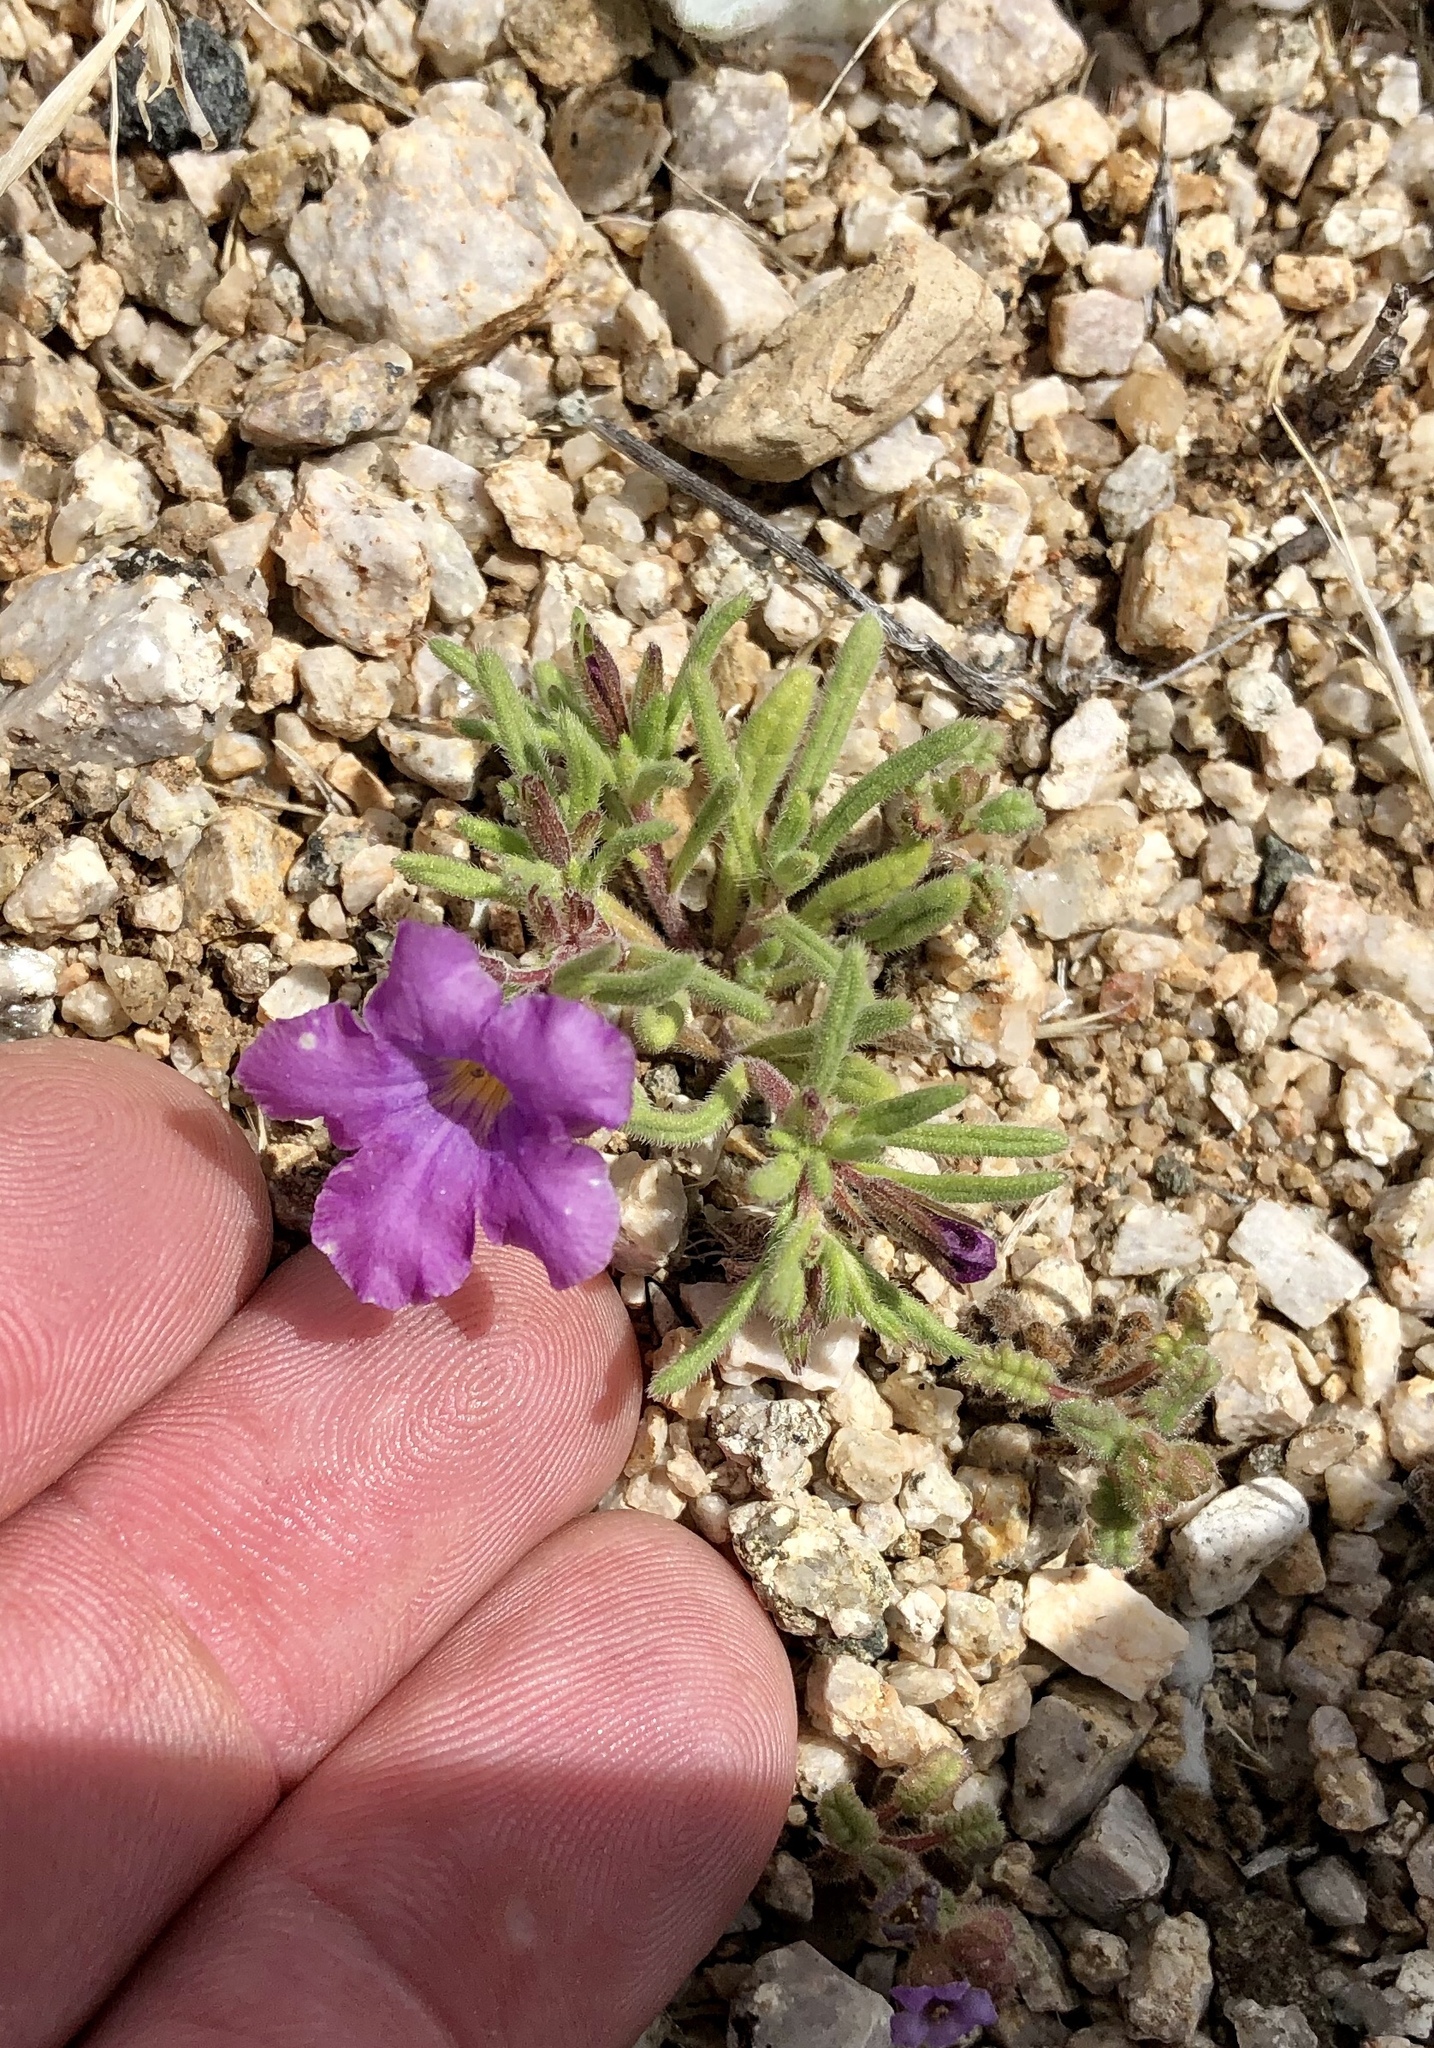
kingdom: Plantae
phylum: Tracheophyta
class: Magnoliopsida
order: Boraginales
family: Namaceae
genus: Nama
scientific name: Nama hispida
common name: Bristly nama
